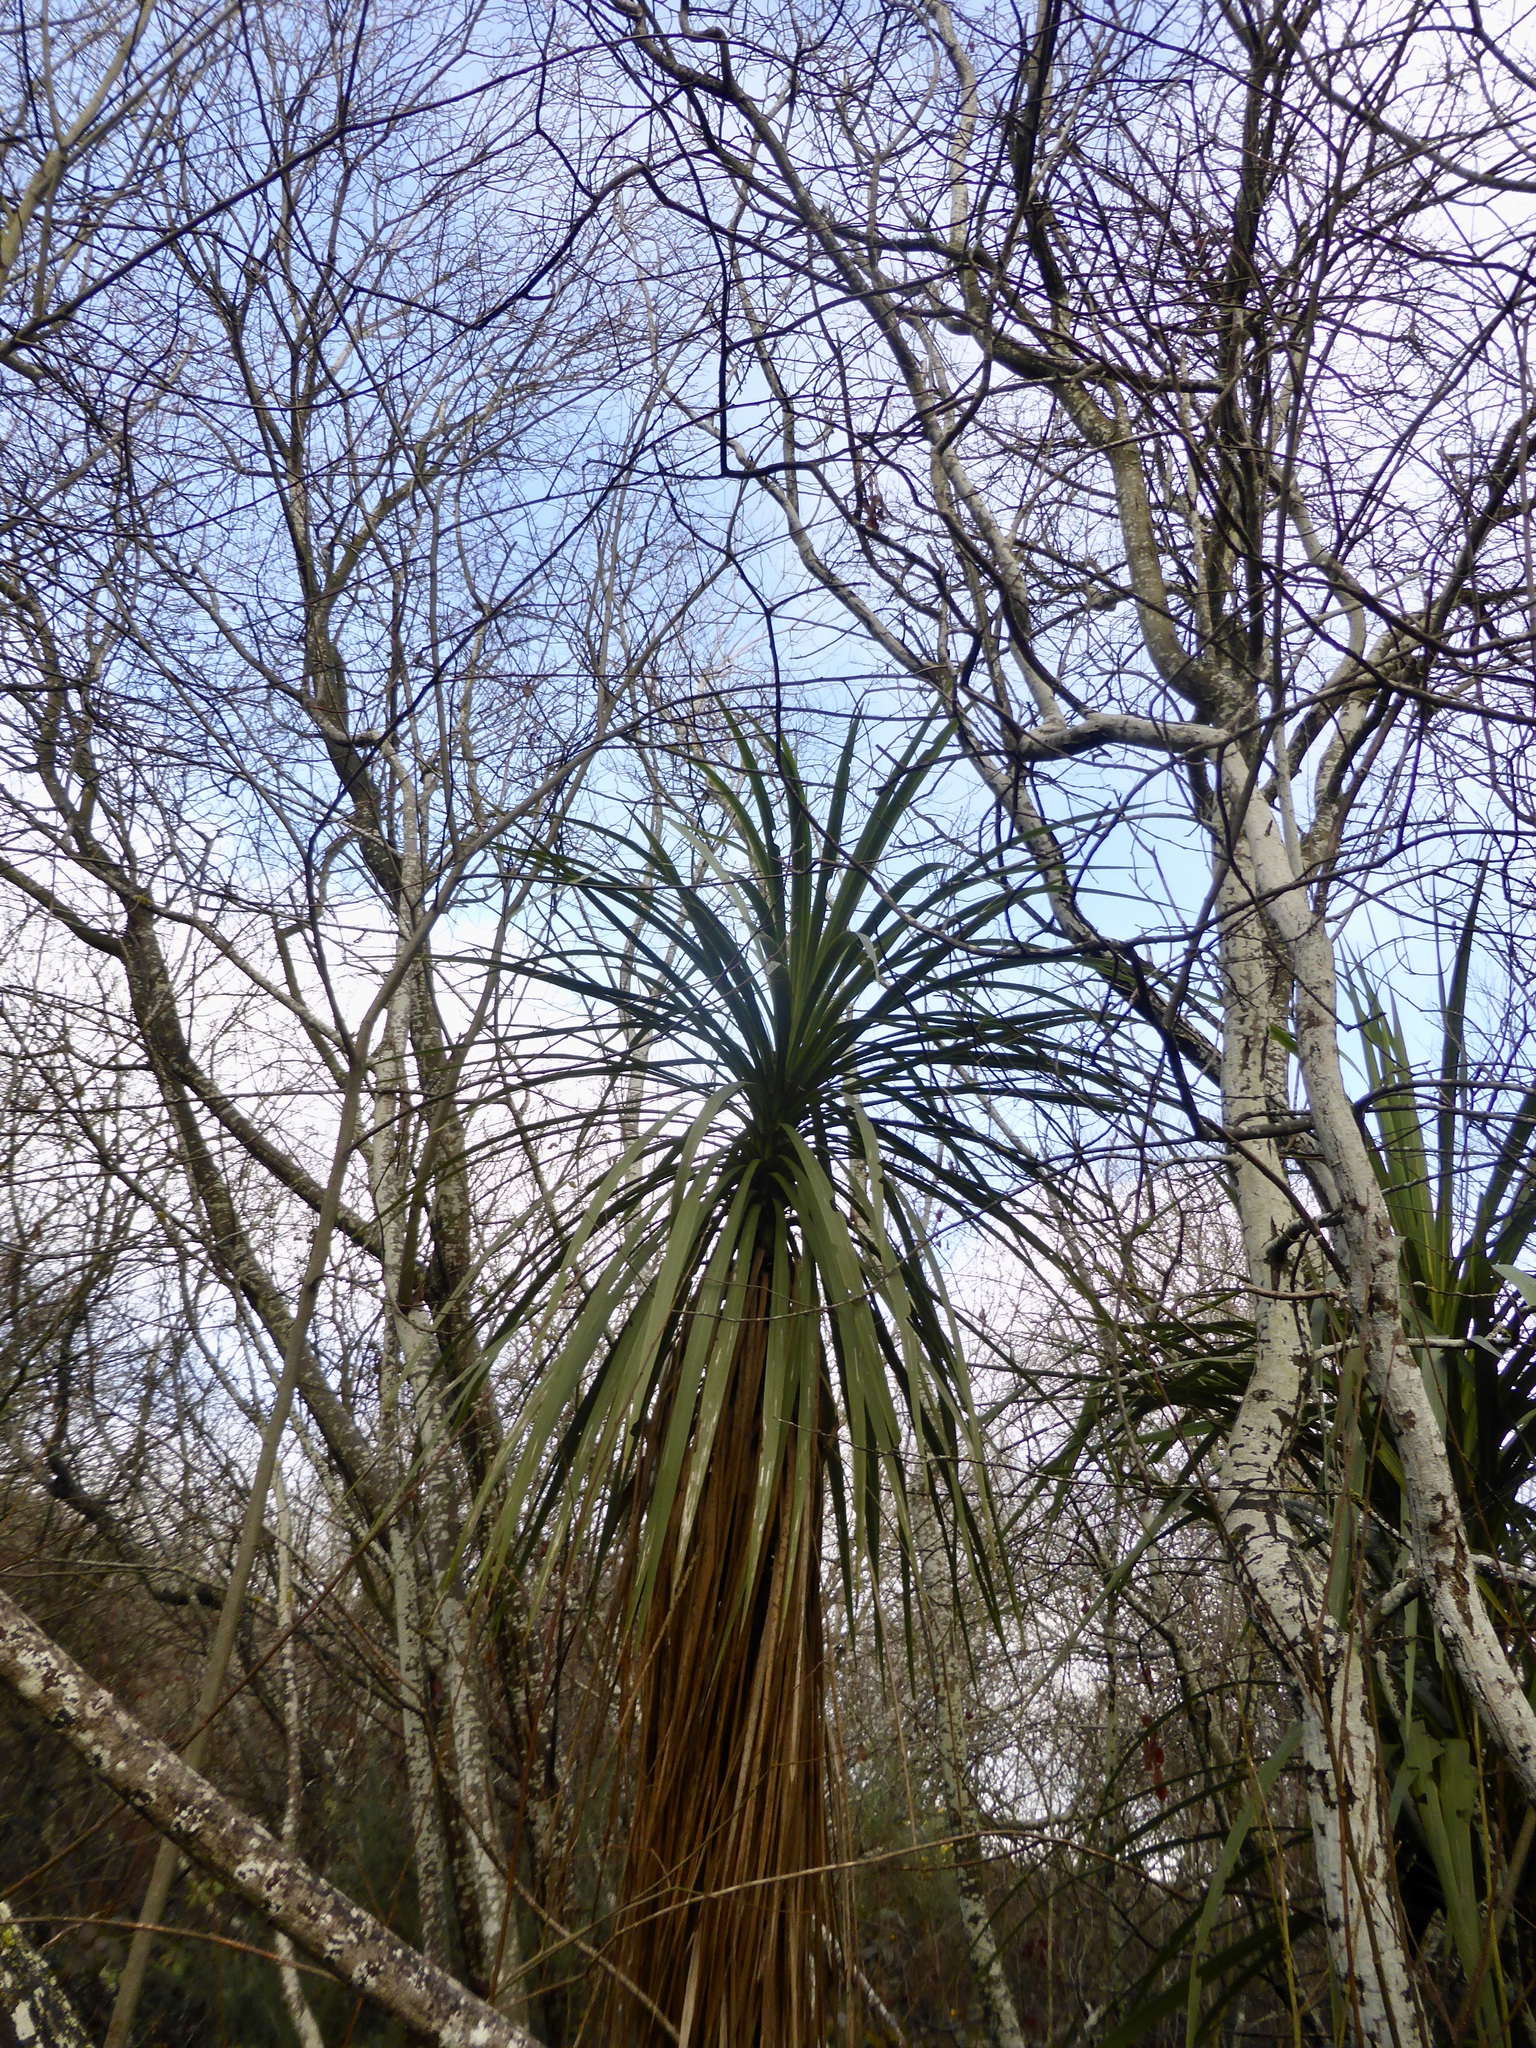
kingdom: Plantae
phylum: Tracheophyta
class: Liliopsida
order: Asparagales
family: Asparagaceae
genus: Cordyline
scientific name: Cordyline australis
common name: Cabbage-palm
